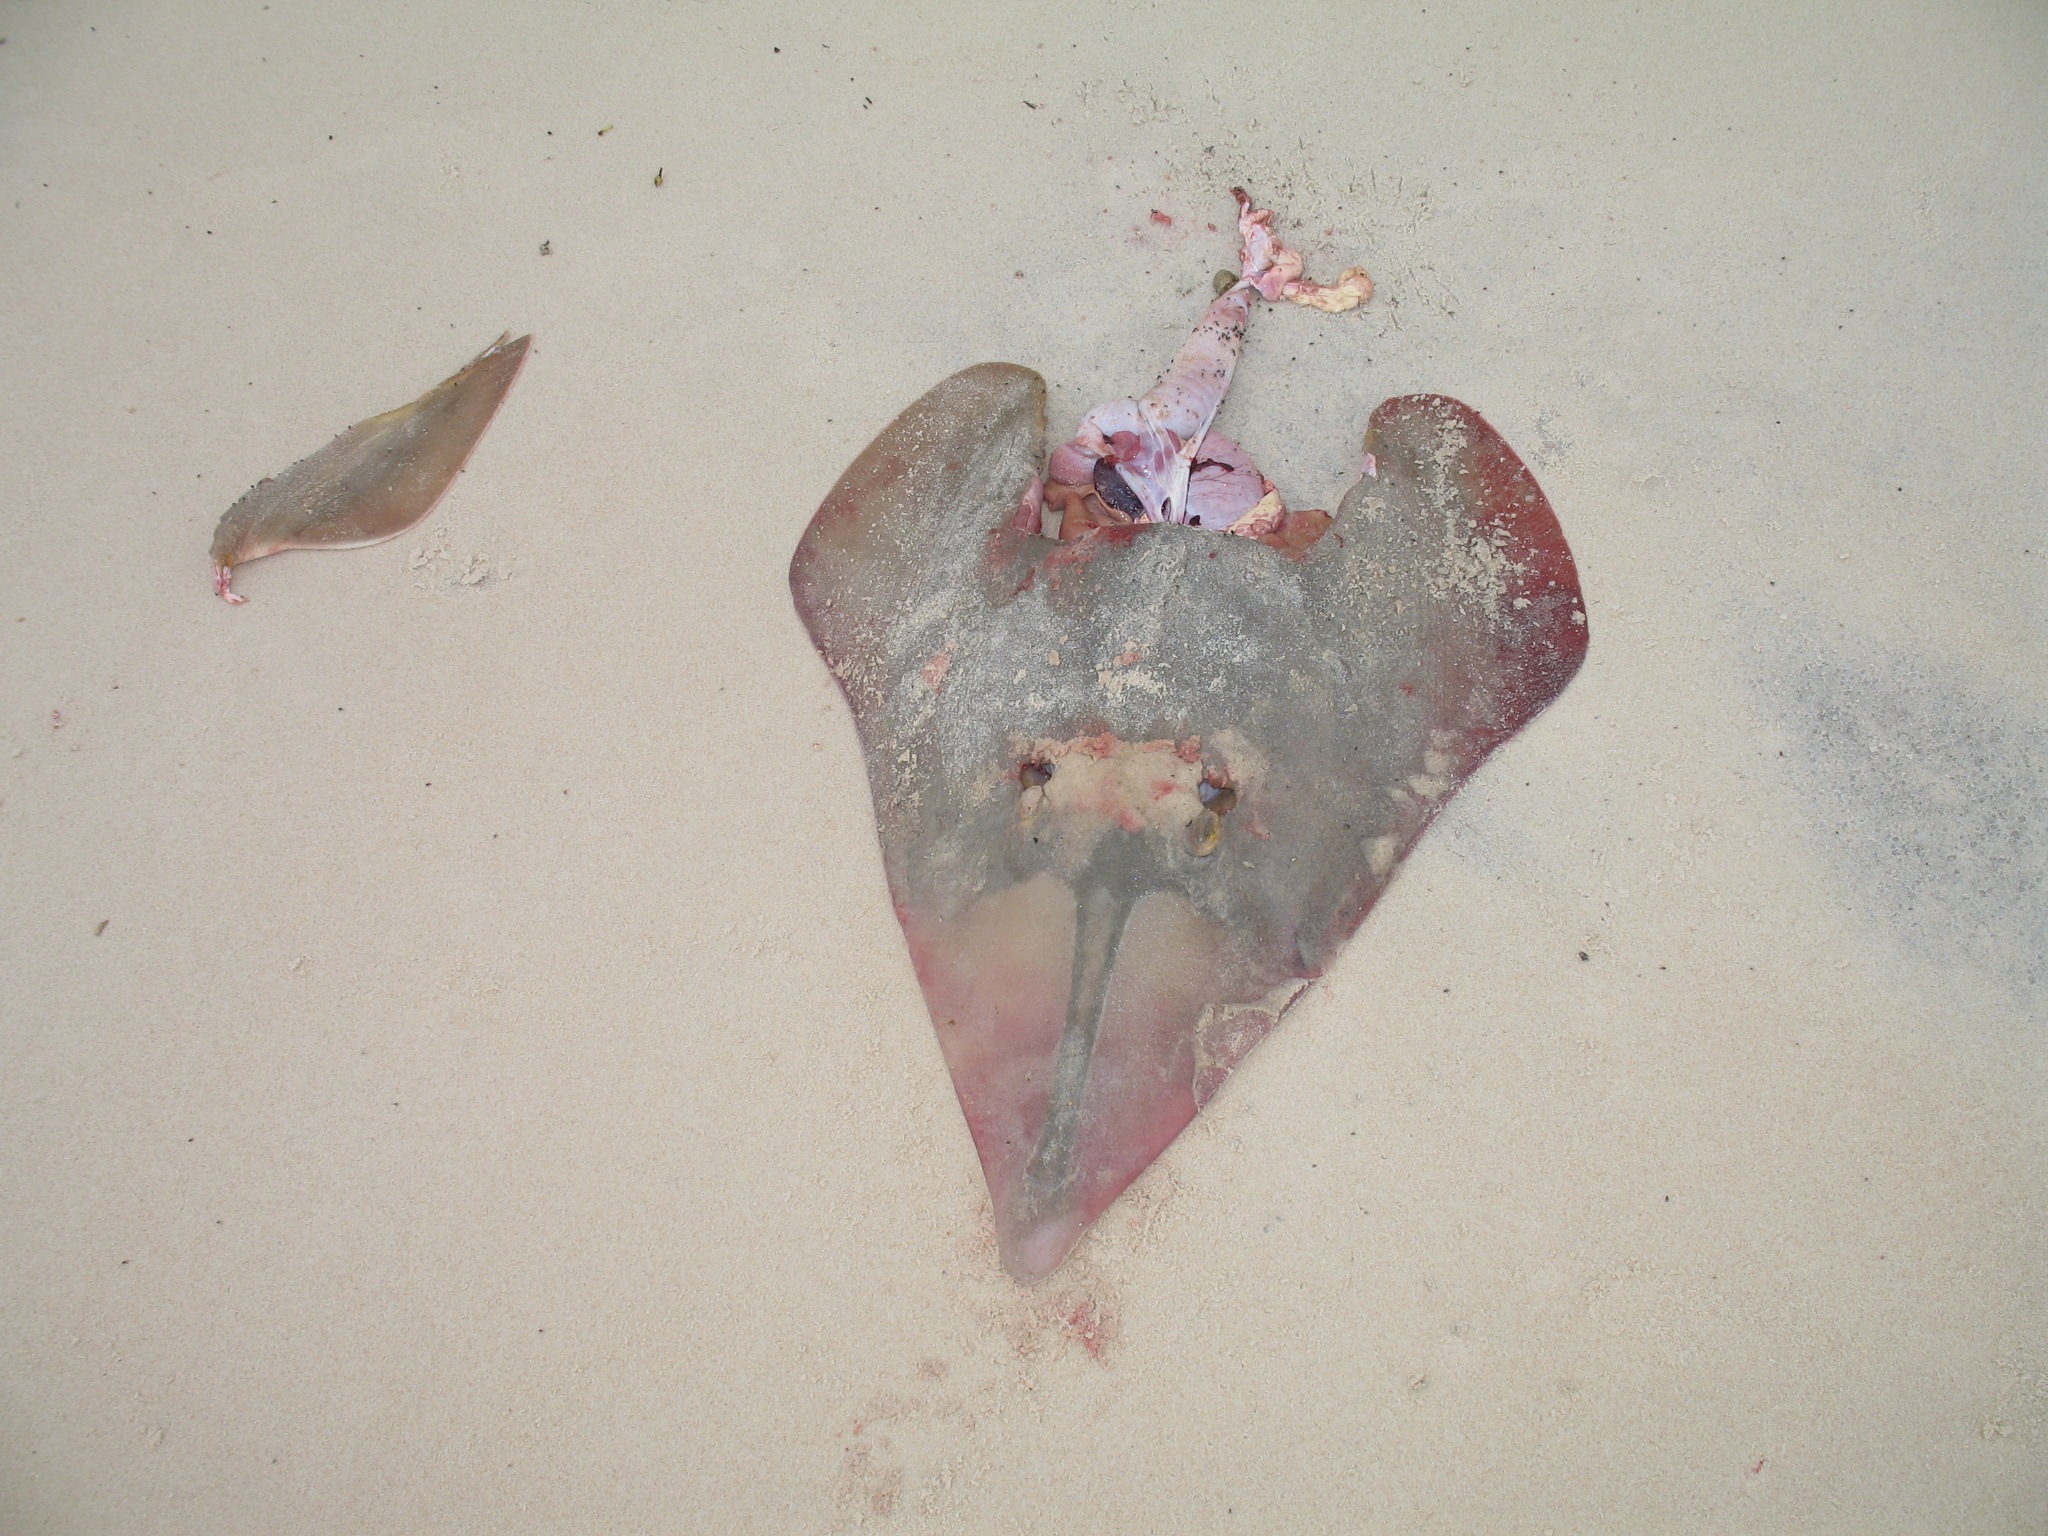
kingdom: Animalia
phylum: Chordata
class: Elasmobranchii
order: Rhinopristiformes
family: Glaucostegidae
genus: Glaucostegus
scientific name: Glaucostegus cemiculus
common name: Blackchin guitarfish
